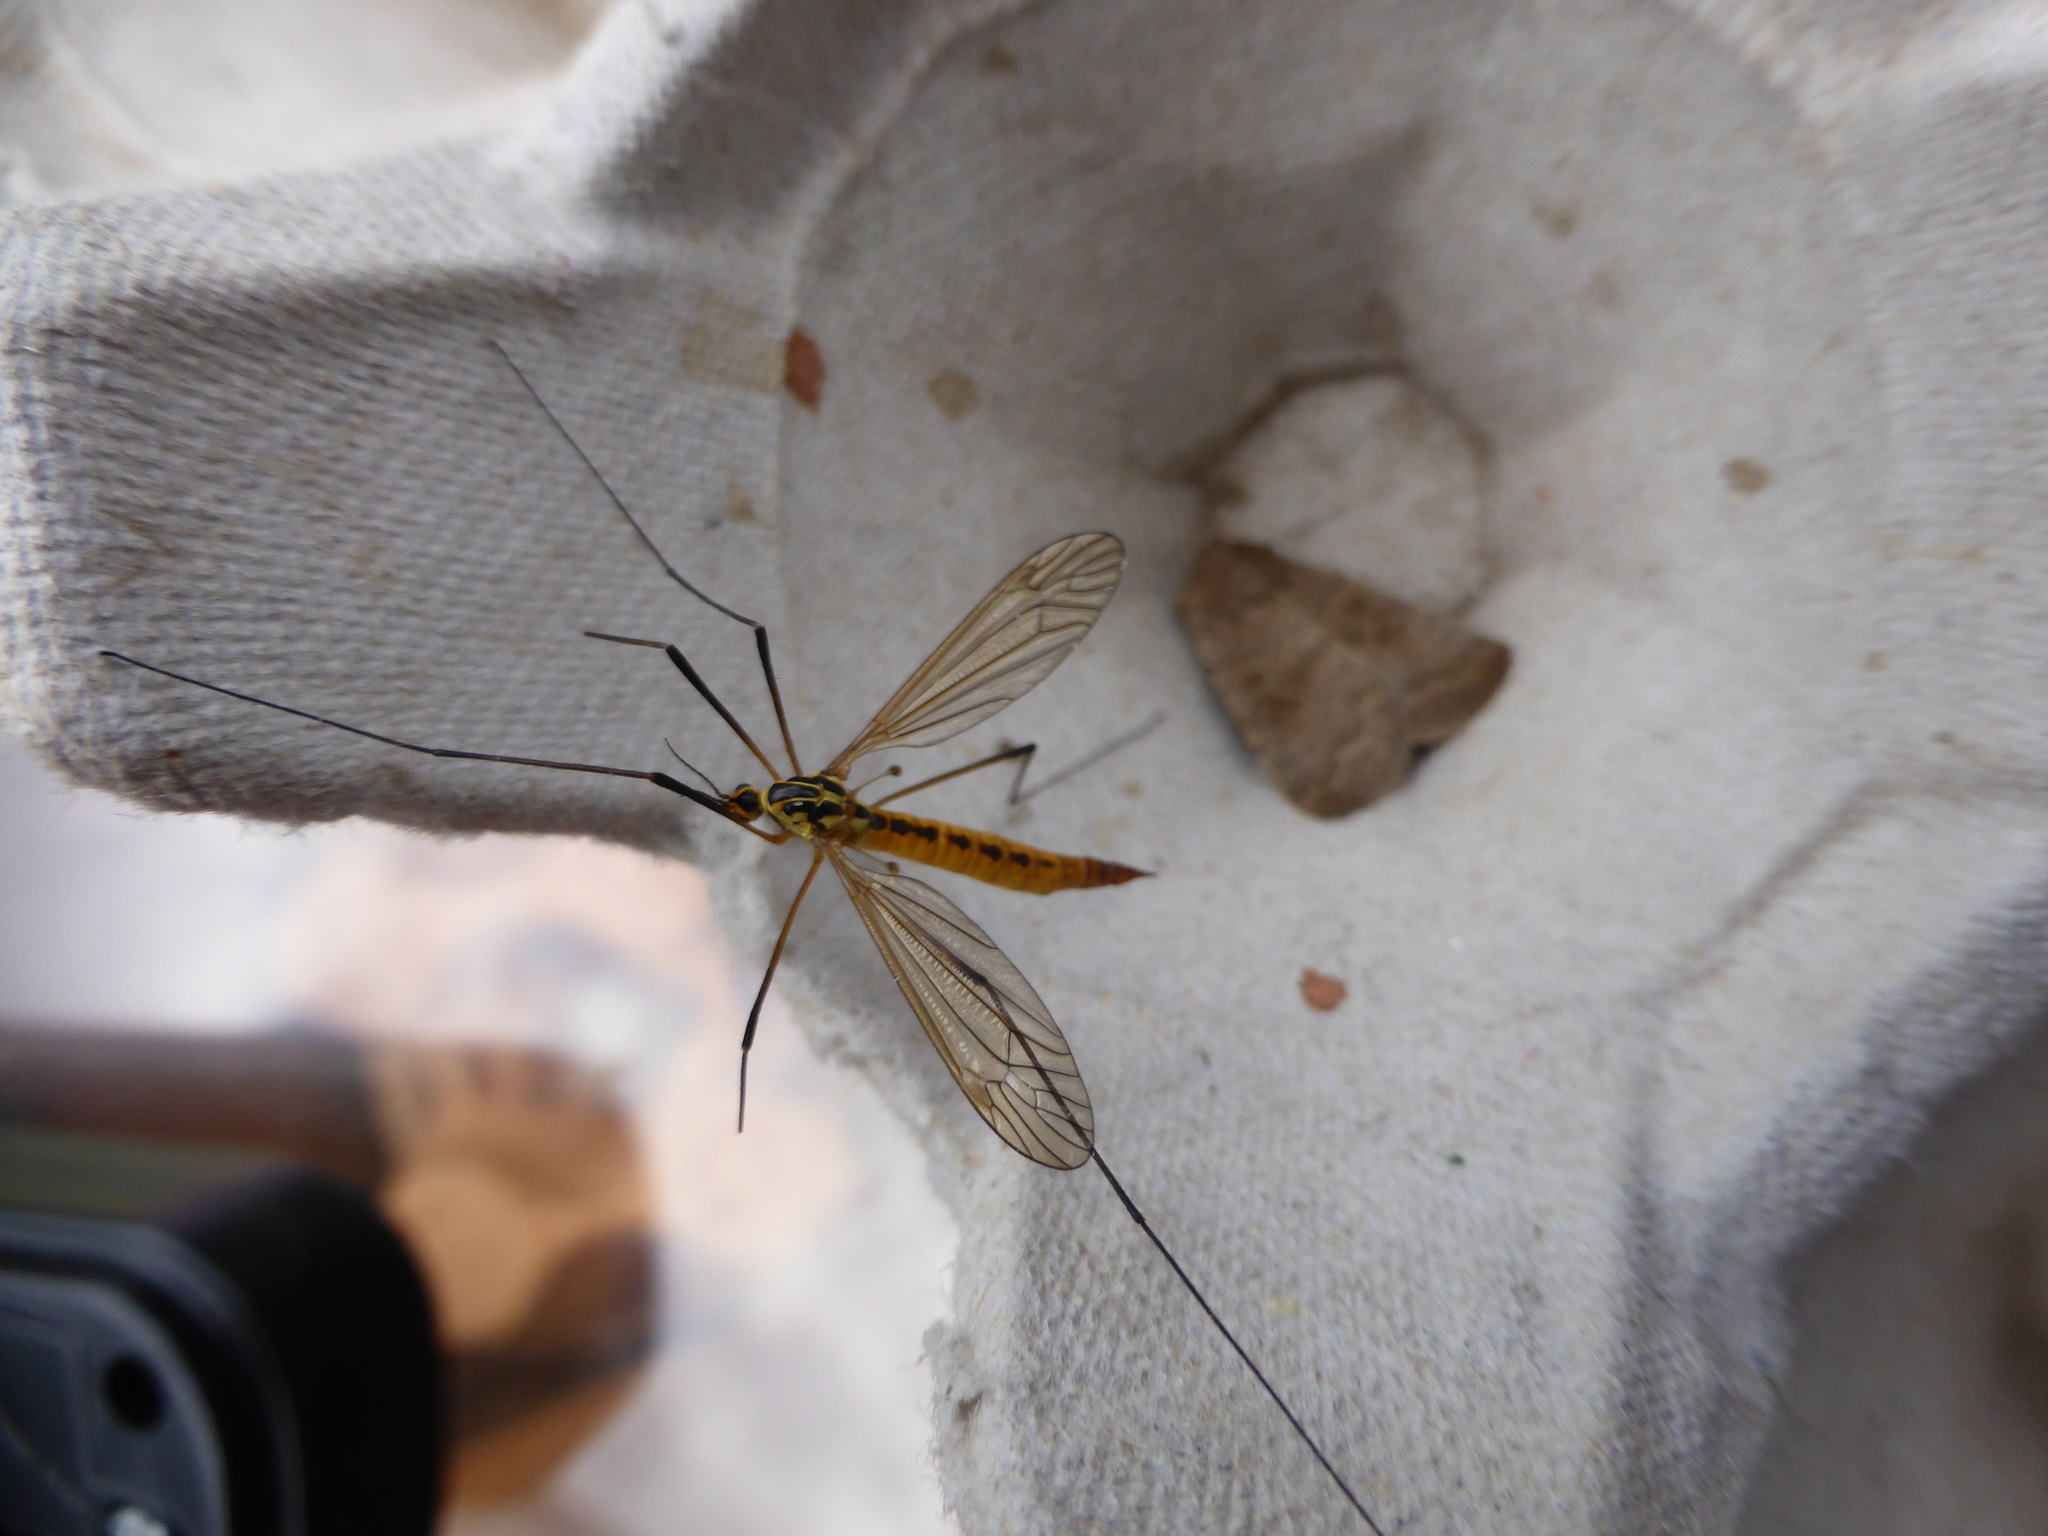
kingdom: Animalia
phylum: Arthropoda
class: Insecta
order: Diptera
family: Tipulidae
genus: Nephrotoma
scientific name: Nephrotoma flavescens
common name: Tiger cranefly
